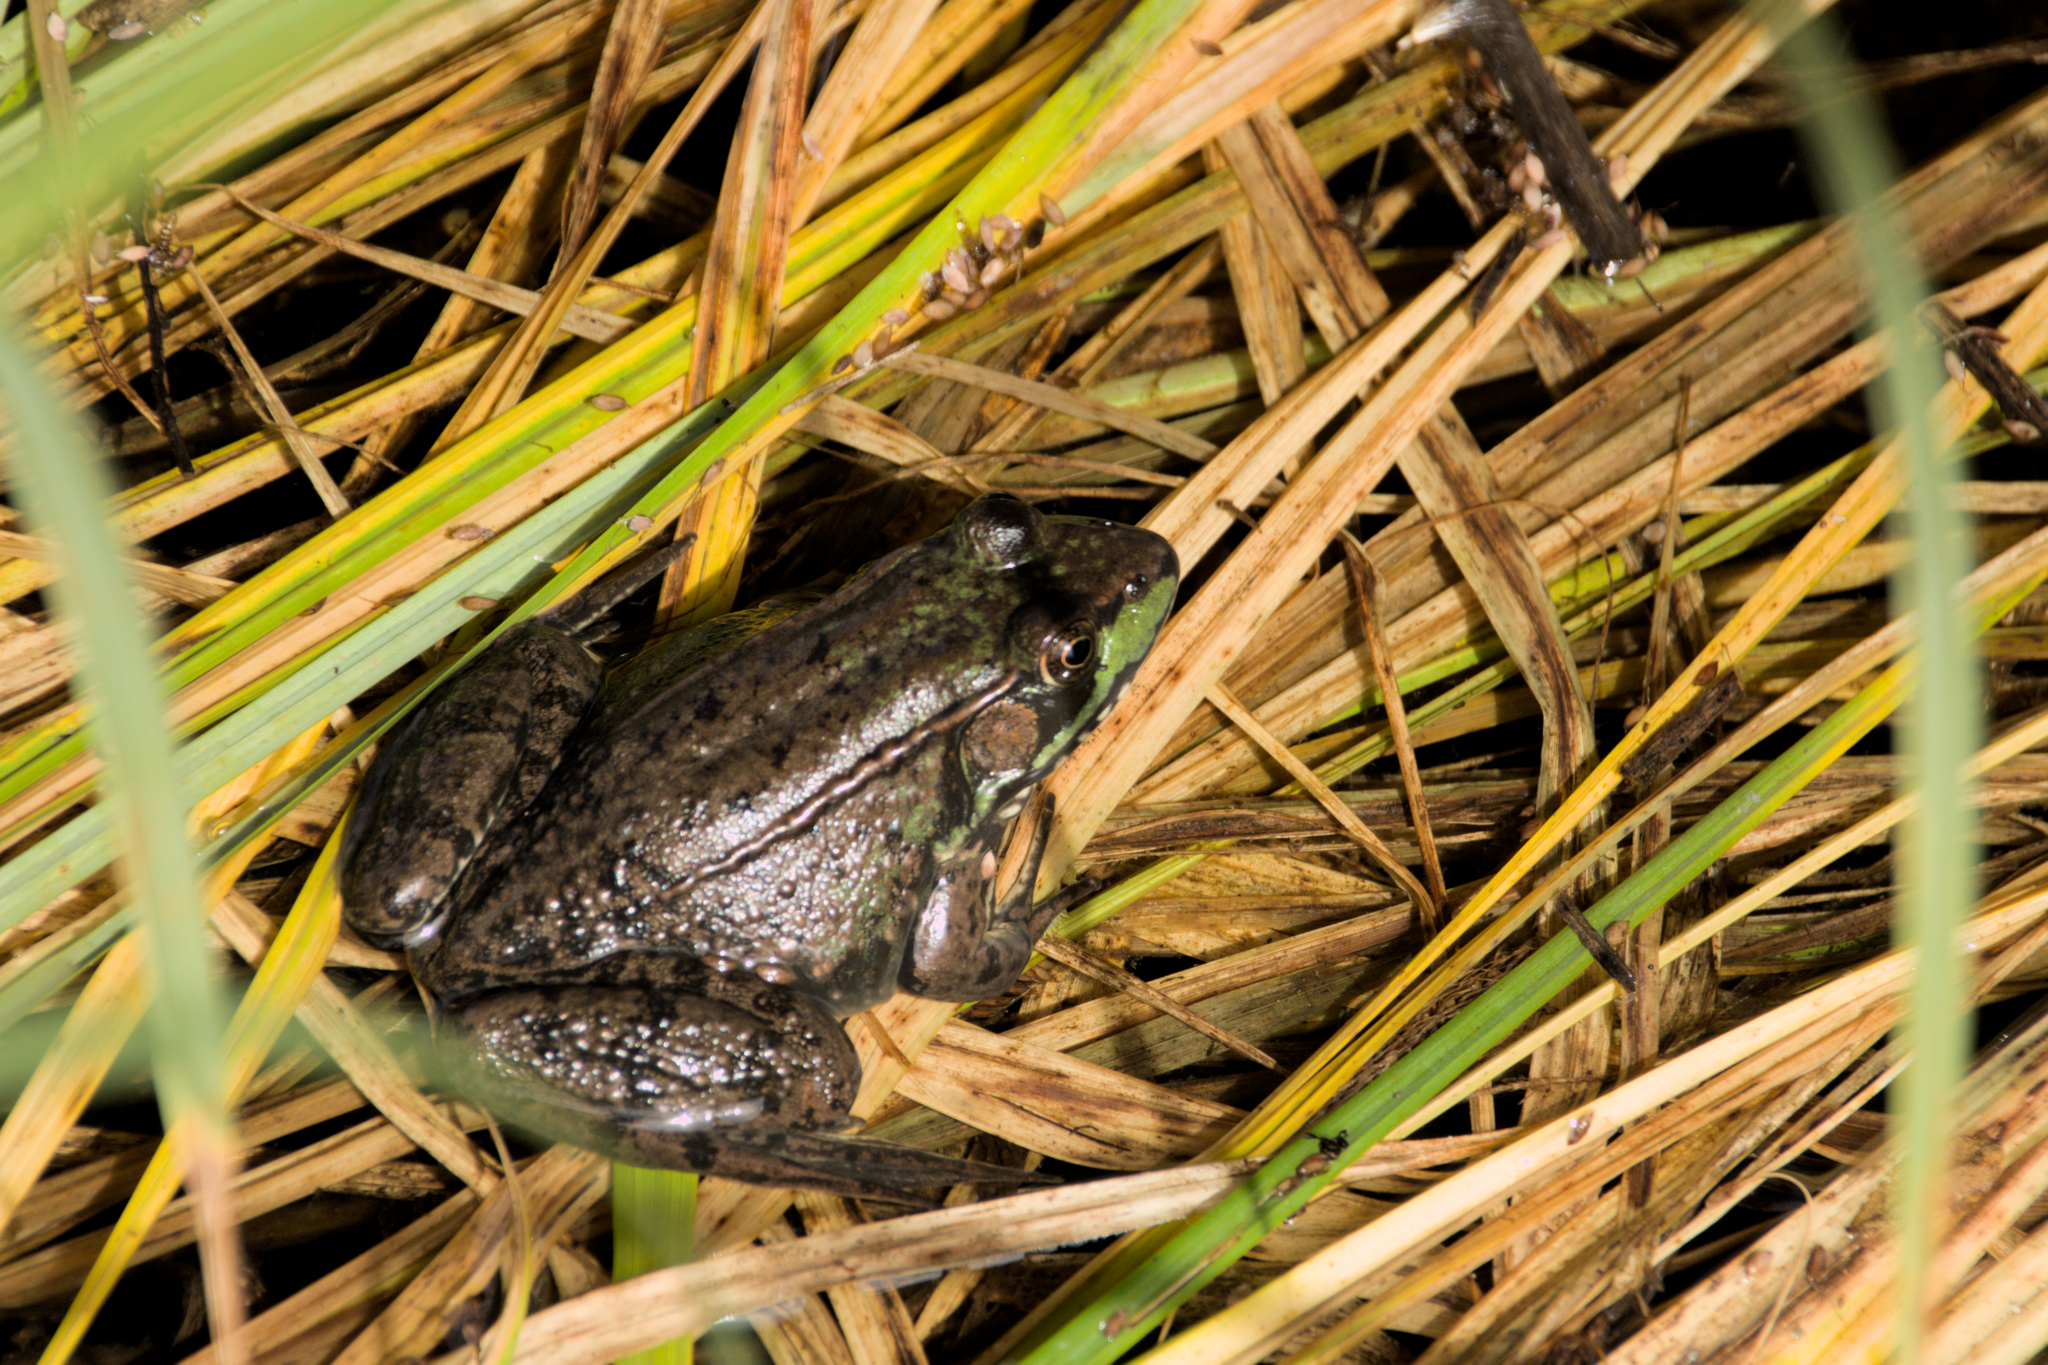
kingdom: Animalia
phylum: Chordata
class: Amphibia
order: Anura
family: Ranidae
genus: Lithobates
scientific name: Lithobates clamitans
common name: Green frog
